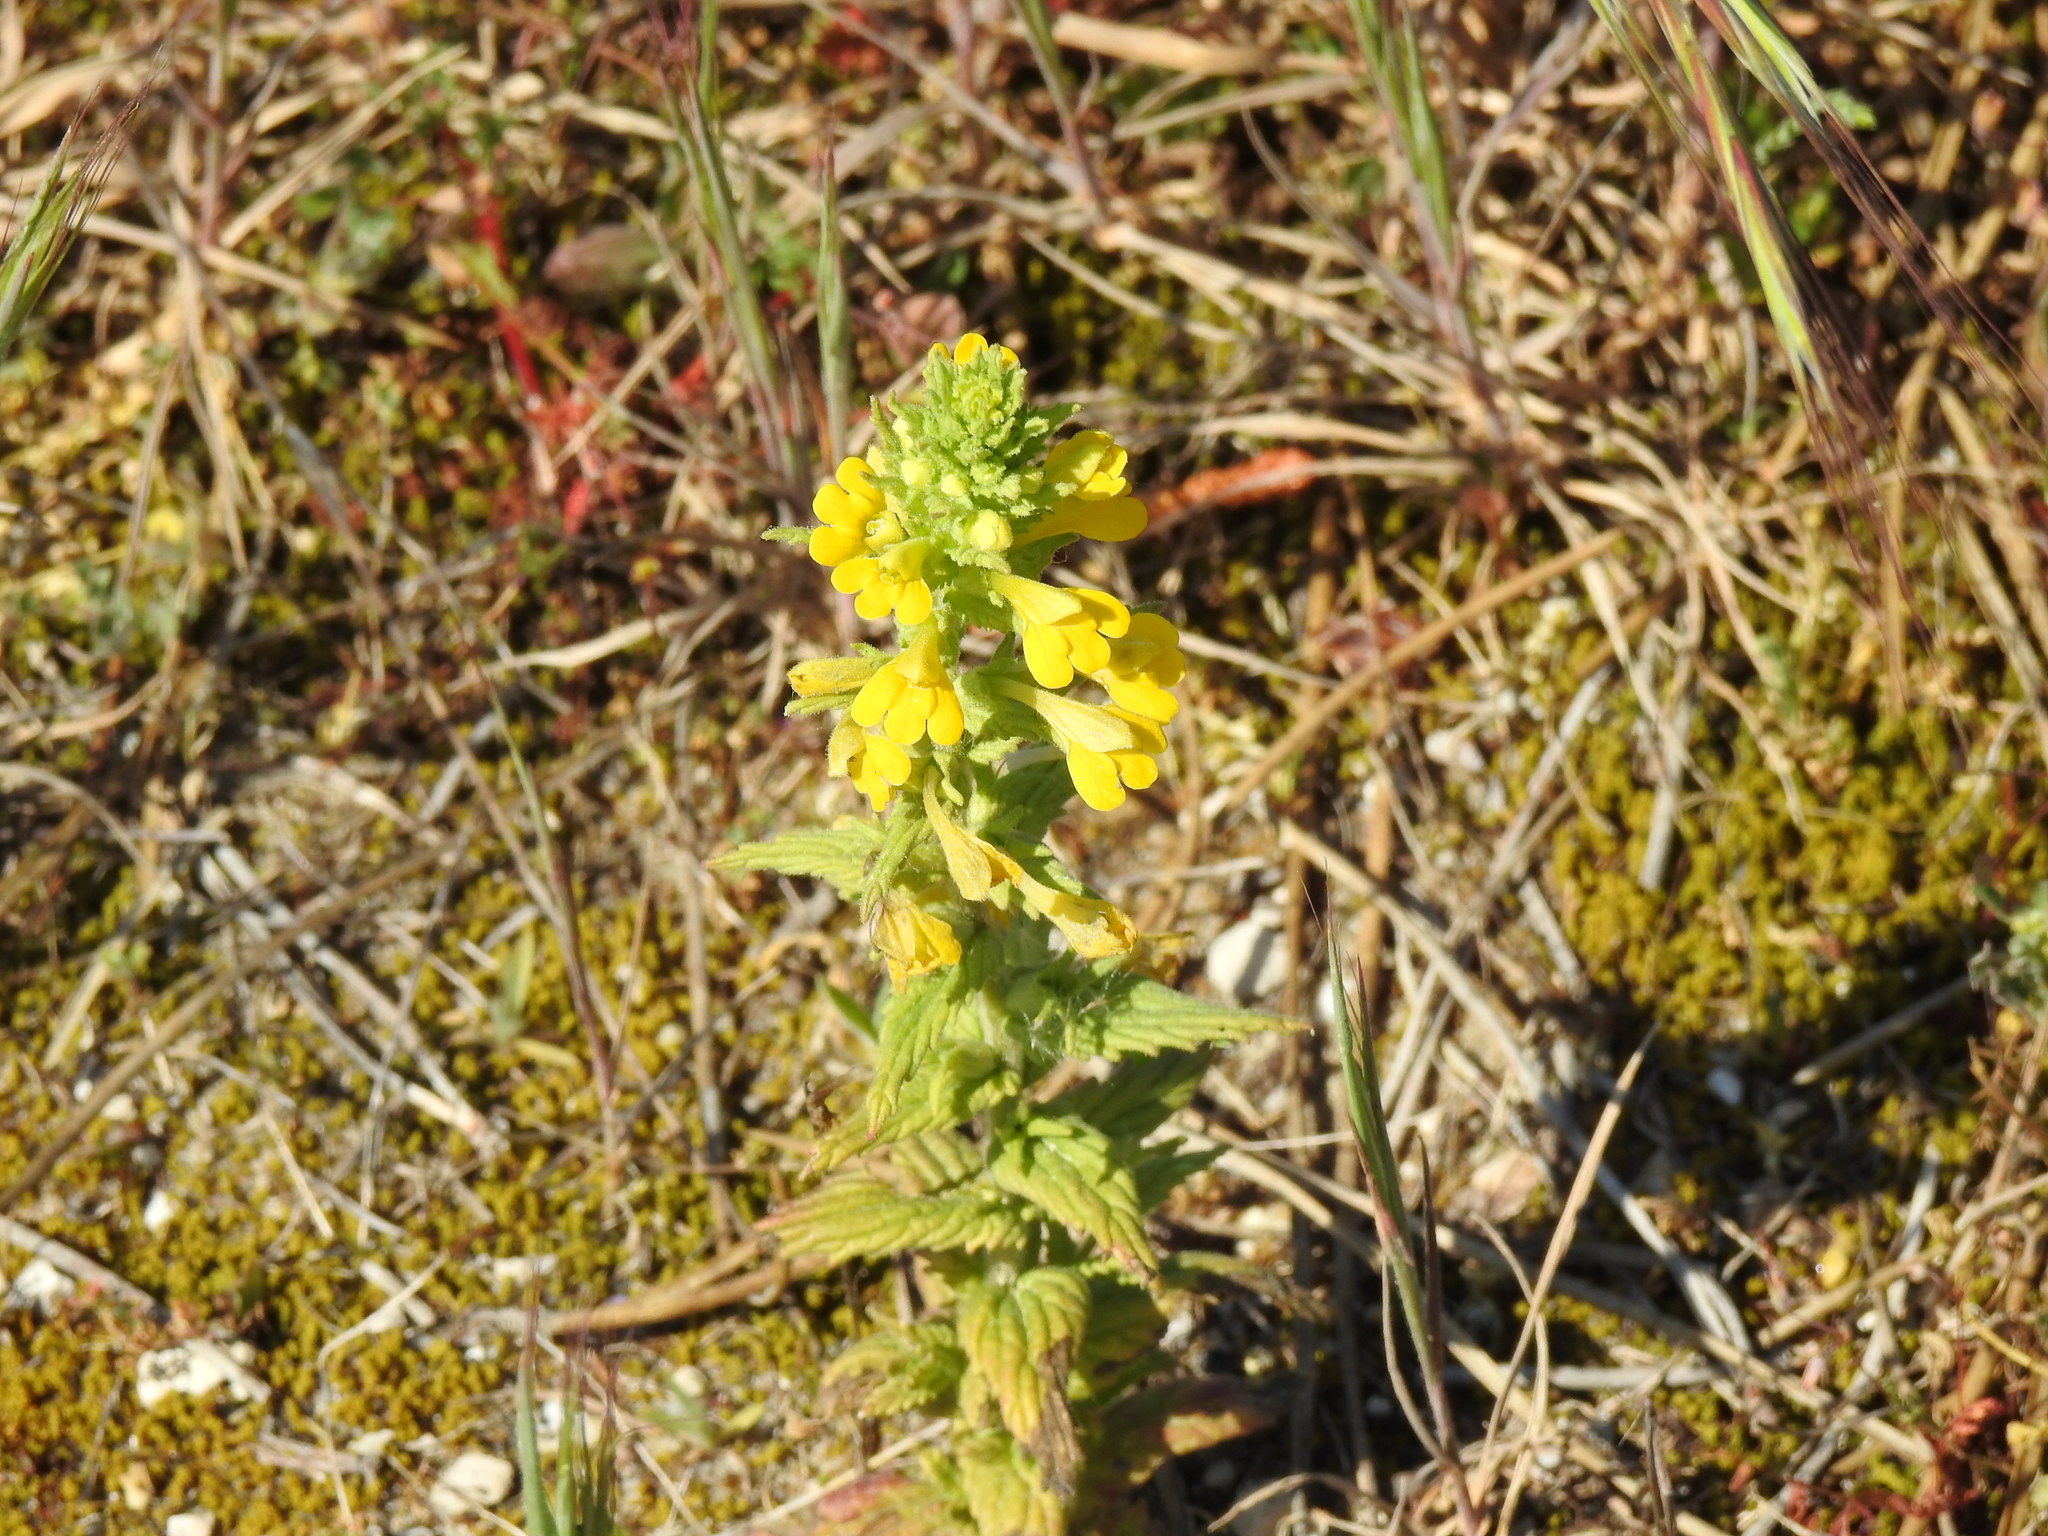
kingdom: Plantae
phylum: Tracheophyta
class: Magnoliopsida
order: Lamiales
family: Orobanchaceae
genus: Bellardia
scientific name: Bellardia viscosa
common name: Sticky parentucellia
